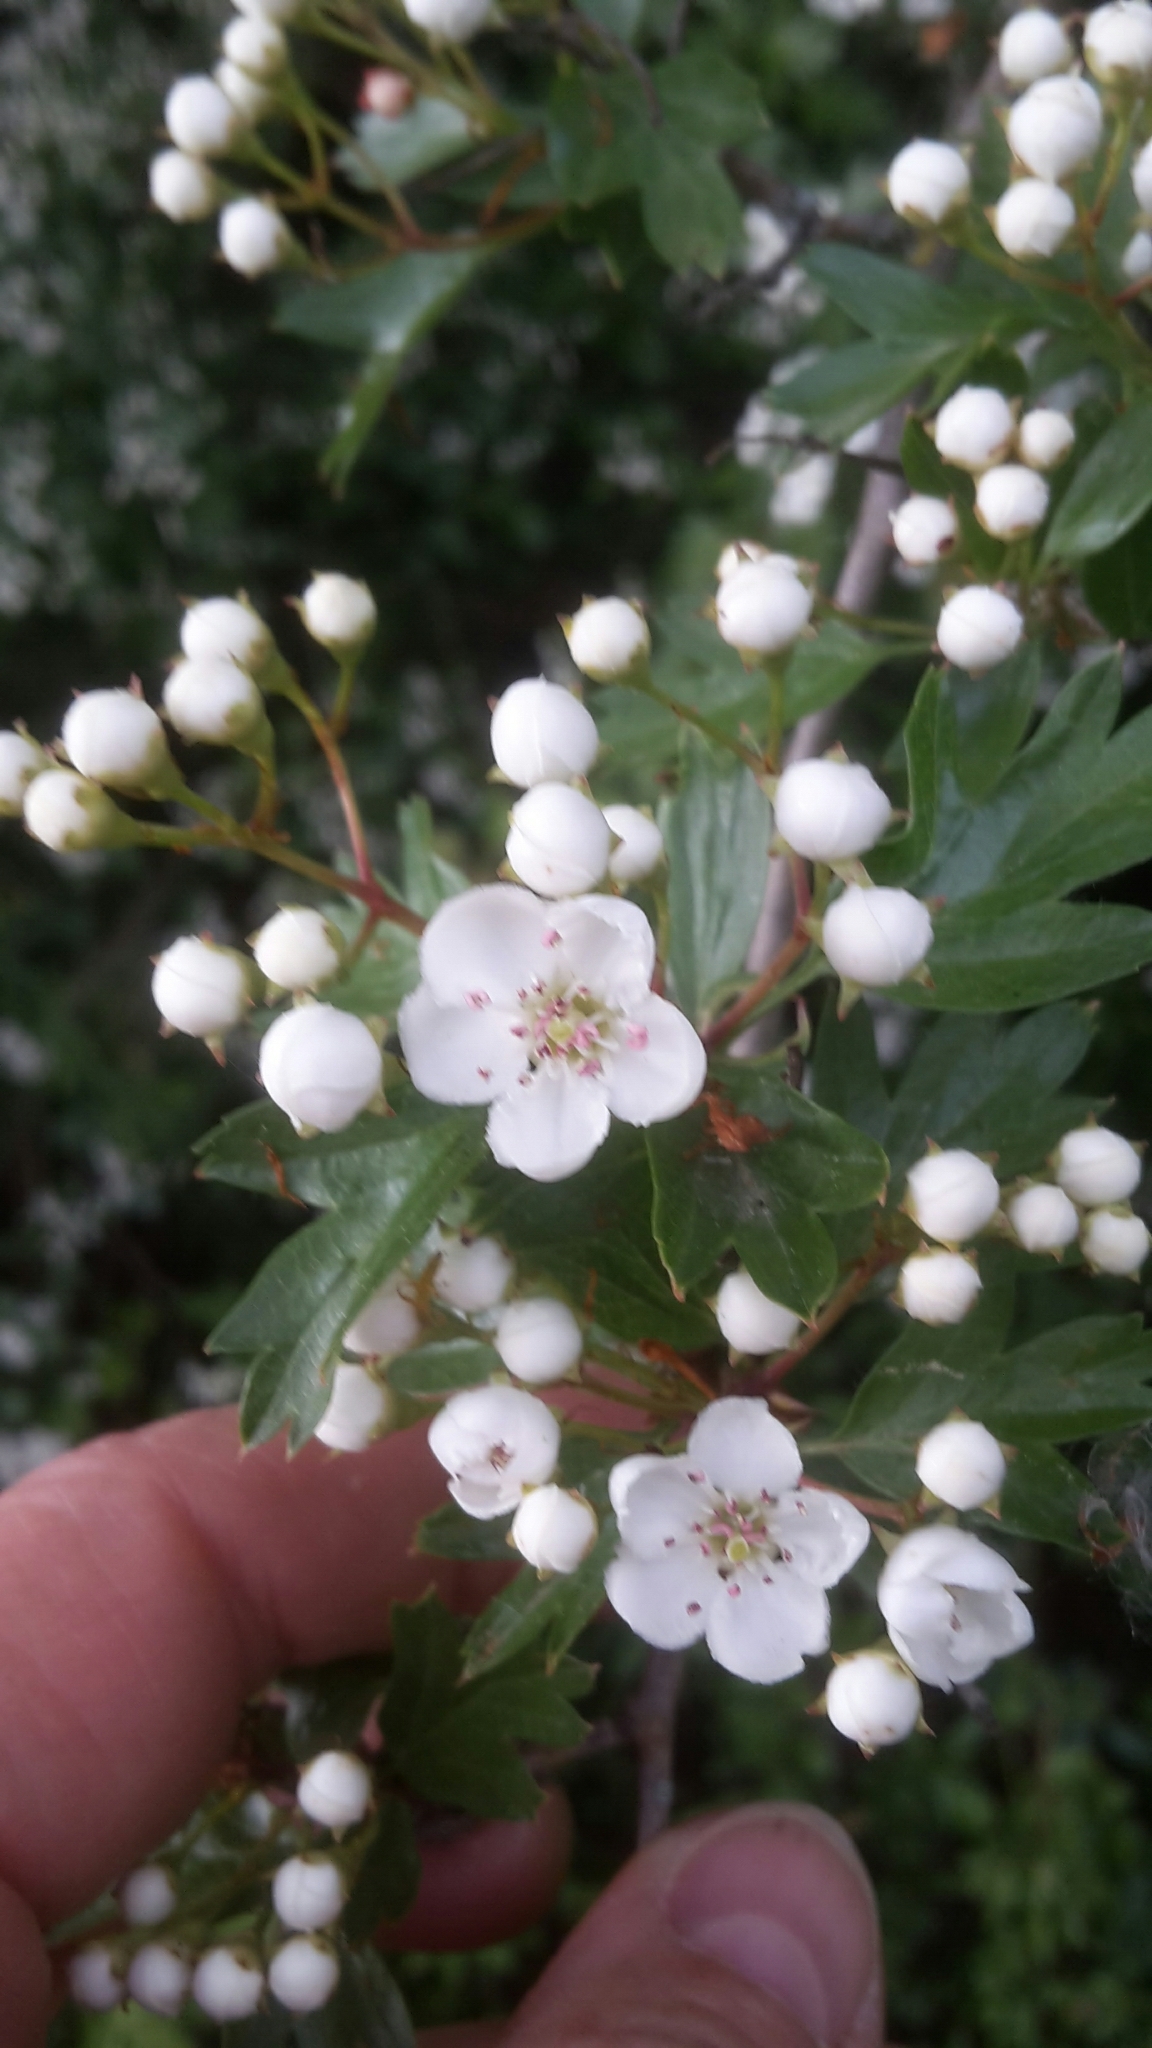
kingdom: Plantae
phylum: Tracheophyta
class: Magnoliopsida
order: Rosales
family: Rosaceae
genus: Crataegus
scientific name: Crataegus monogyna
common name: Hawthorn
